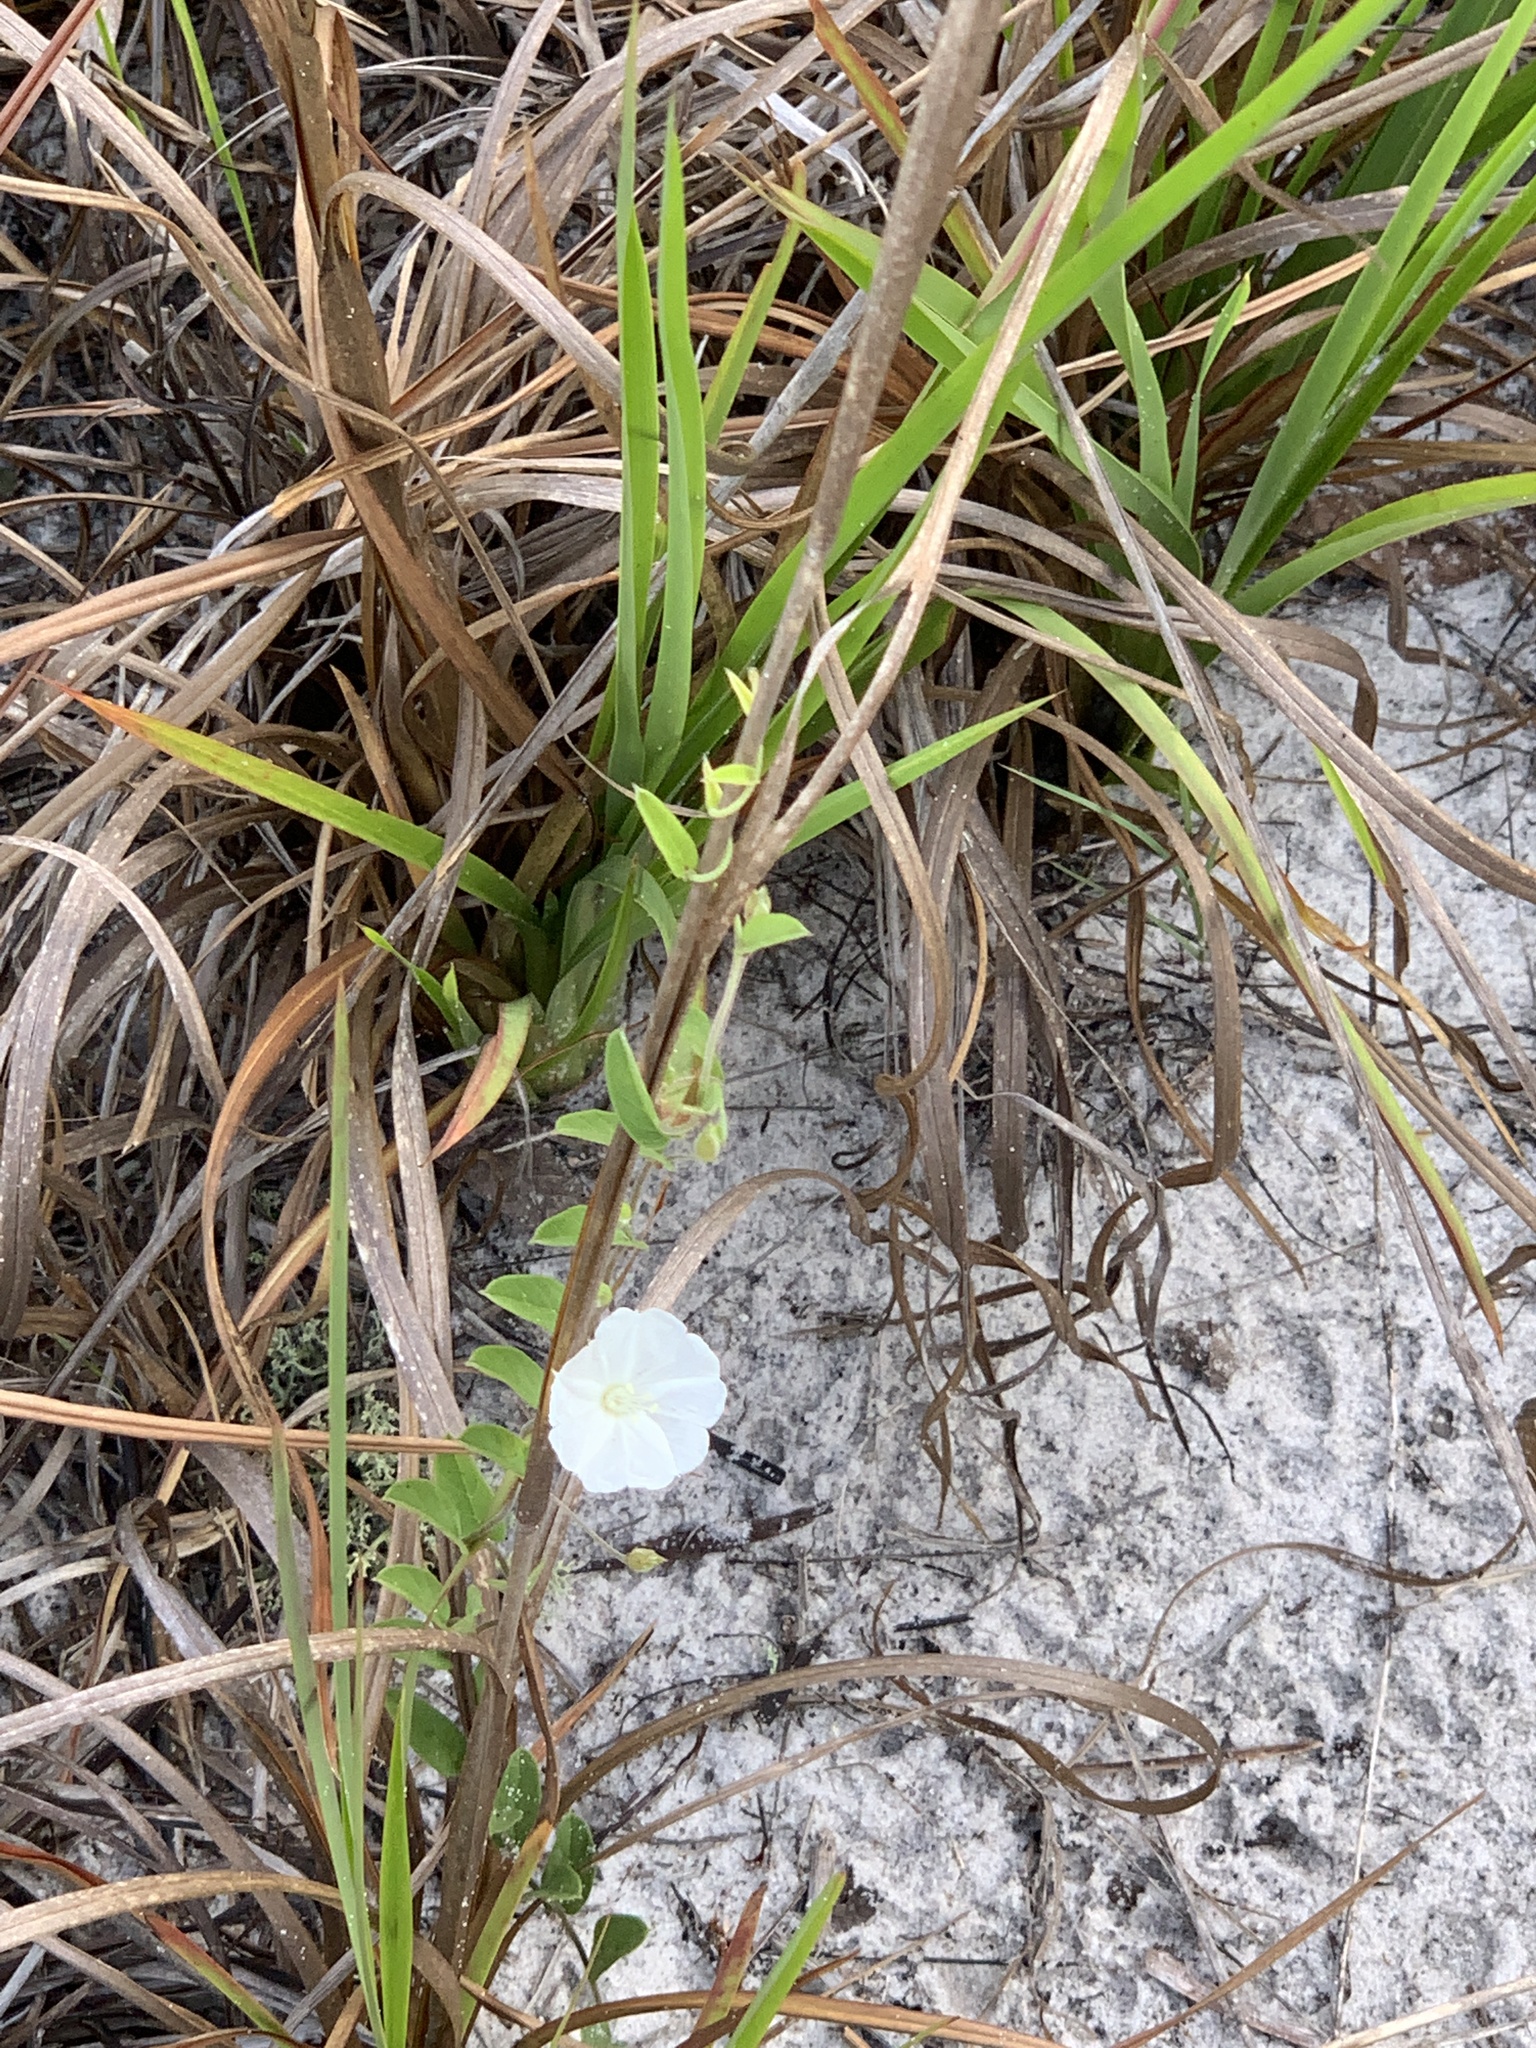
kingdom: Plantae
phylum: Tracheophyta
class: Magnoliopsida
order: Solanales
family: Convolvulaceae
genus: Stylisma
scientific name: Stylisma villosa
